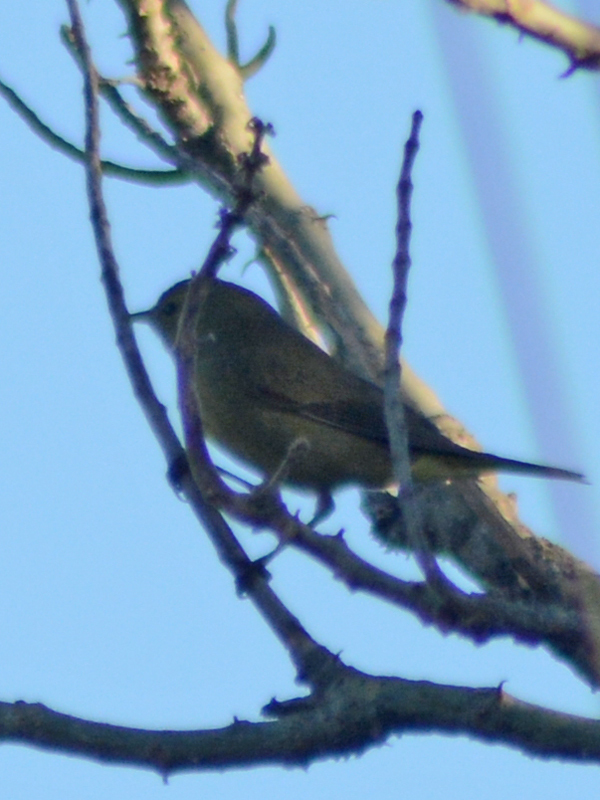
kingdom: Animalia
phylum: Chordata
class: Aves
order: Passeriformes
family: Parulidae
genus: Leiothlypis
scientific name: Leiothlypis celata
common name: Orange-crowned warbler
